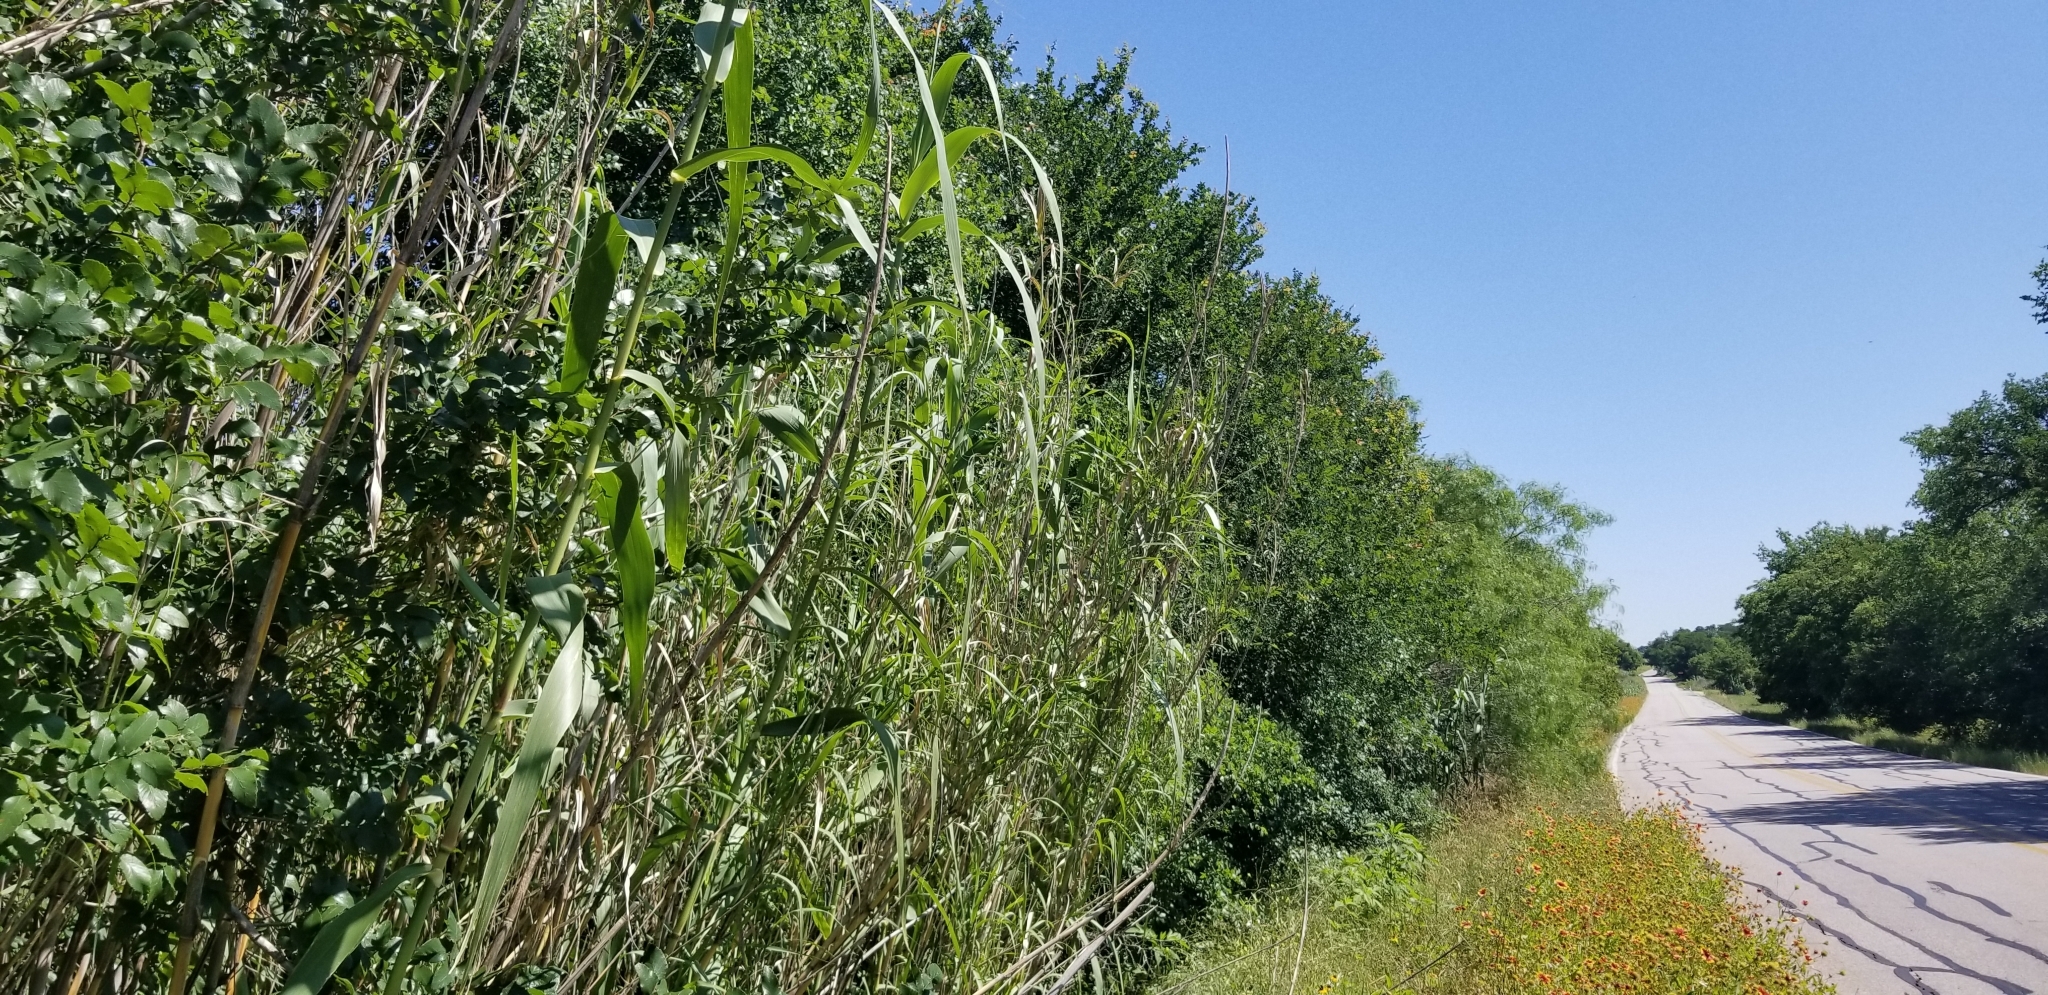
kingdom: Plantae
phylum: Tracheophyta
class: Liliopsida
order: Poales
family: Poaceae
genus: Arundo
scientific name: Arundo donax
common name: Giant reed
